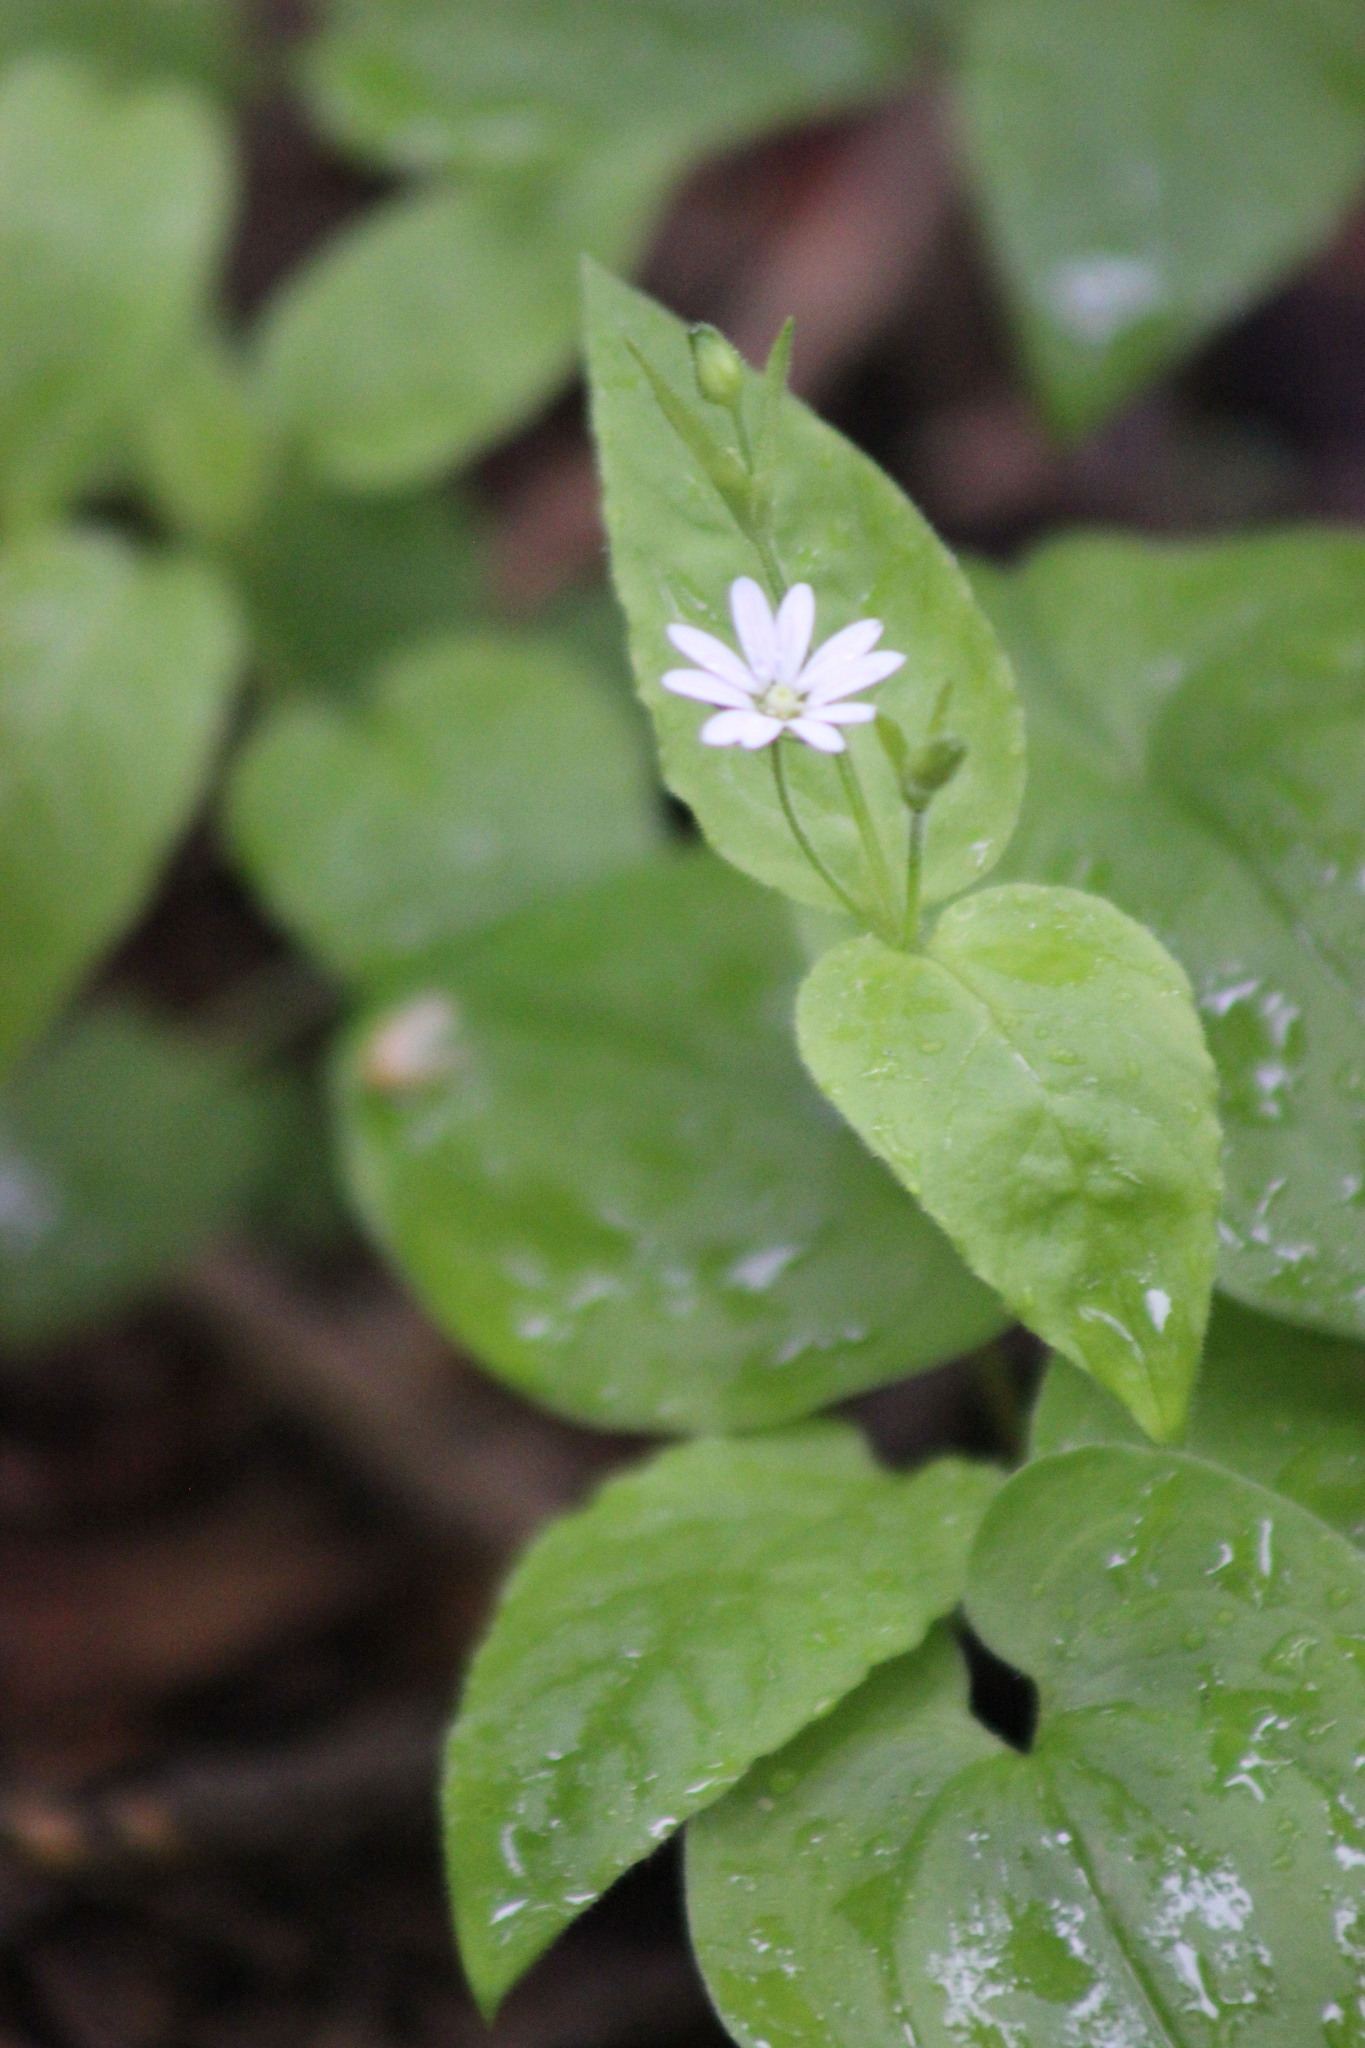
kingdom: Plantae
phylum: Tracheophyta
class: Magnoliopsida
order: Caryophyllales
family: Caryophyllaceae
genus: Stellaria
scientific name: Stellaria bungeana
